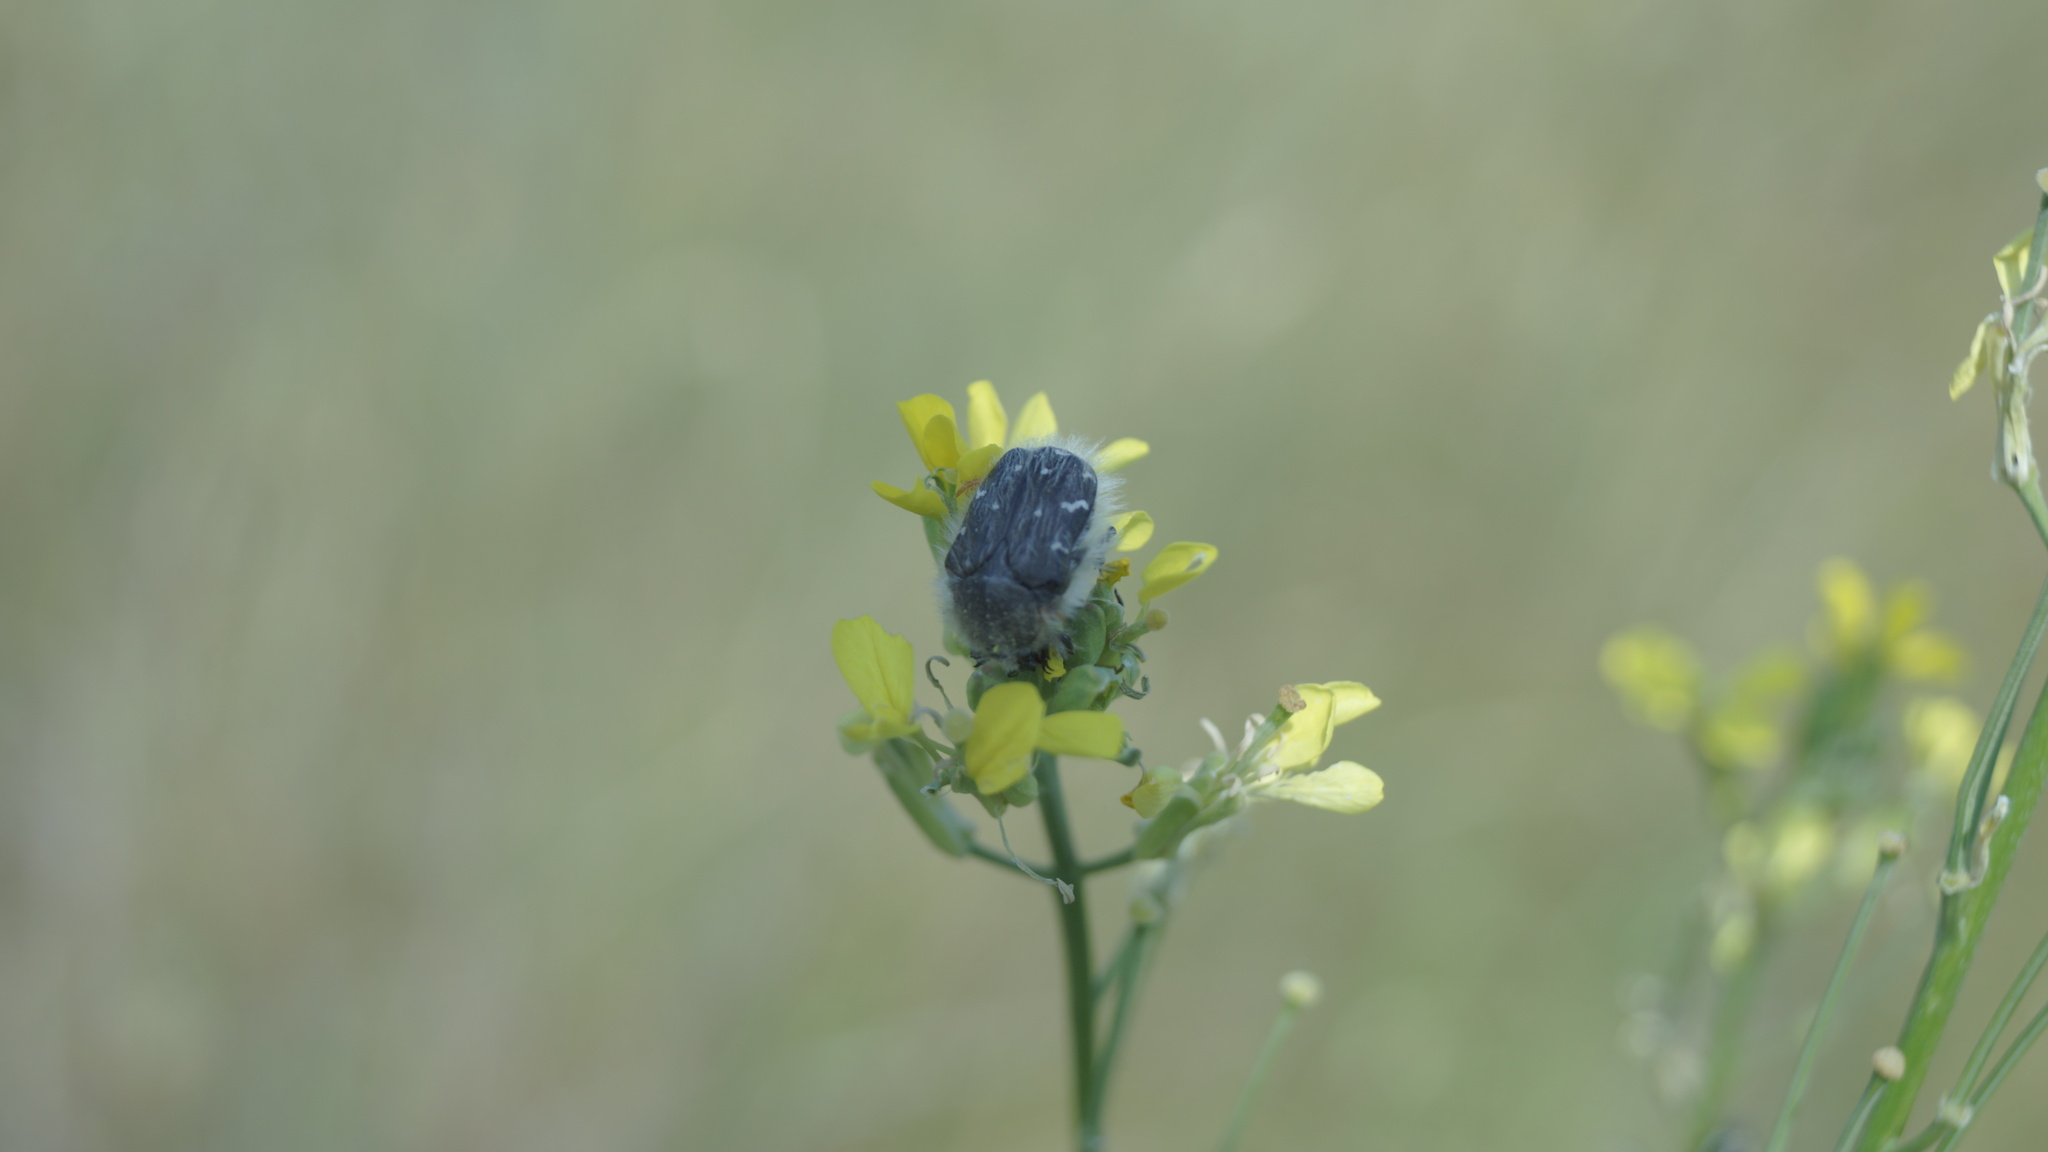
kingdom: Animalia
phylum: Arthropoda
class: Insecta
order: Coleoptera
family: Scarabaeidae
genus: Tropinota
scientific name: Tropinota hirta
